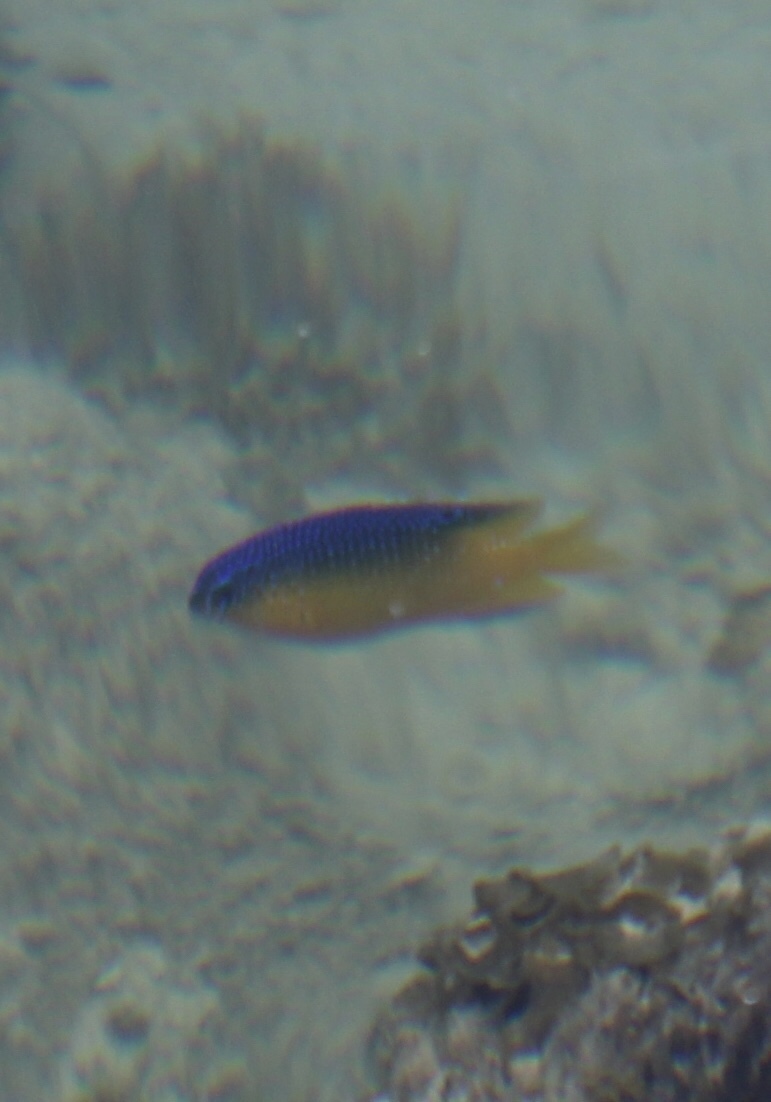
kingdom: Animalia
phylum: Chordata
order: Perciformes
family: Pomacentridae
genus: Stegastes
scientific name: Stegastes leucostictus
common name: Beaugregory
